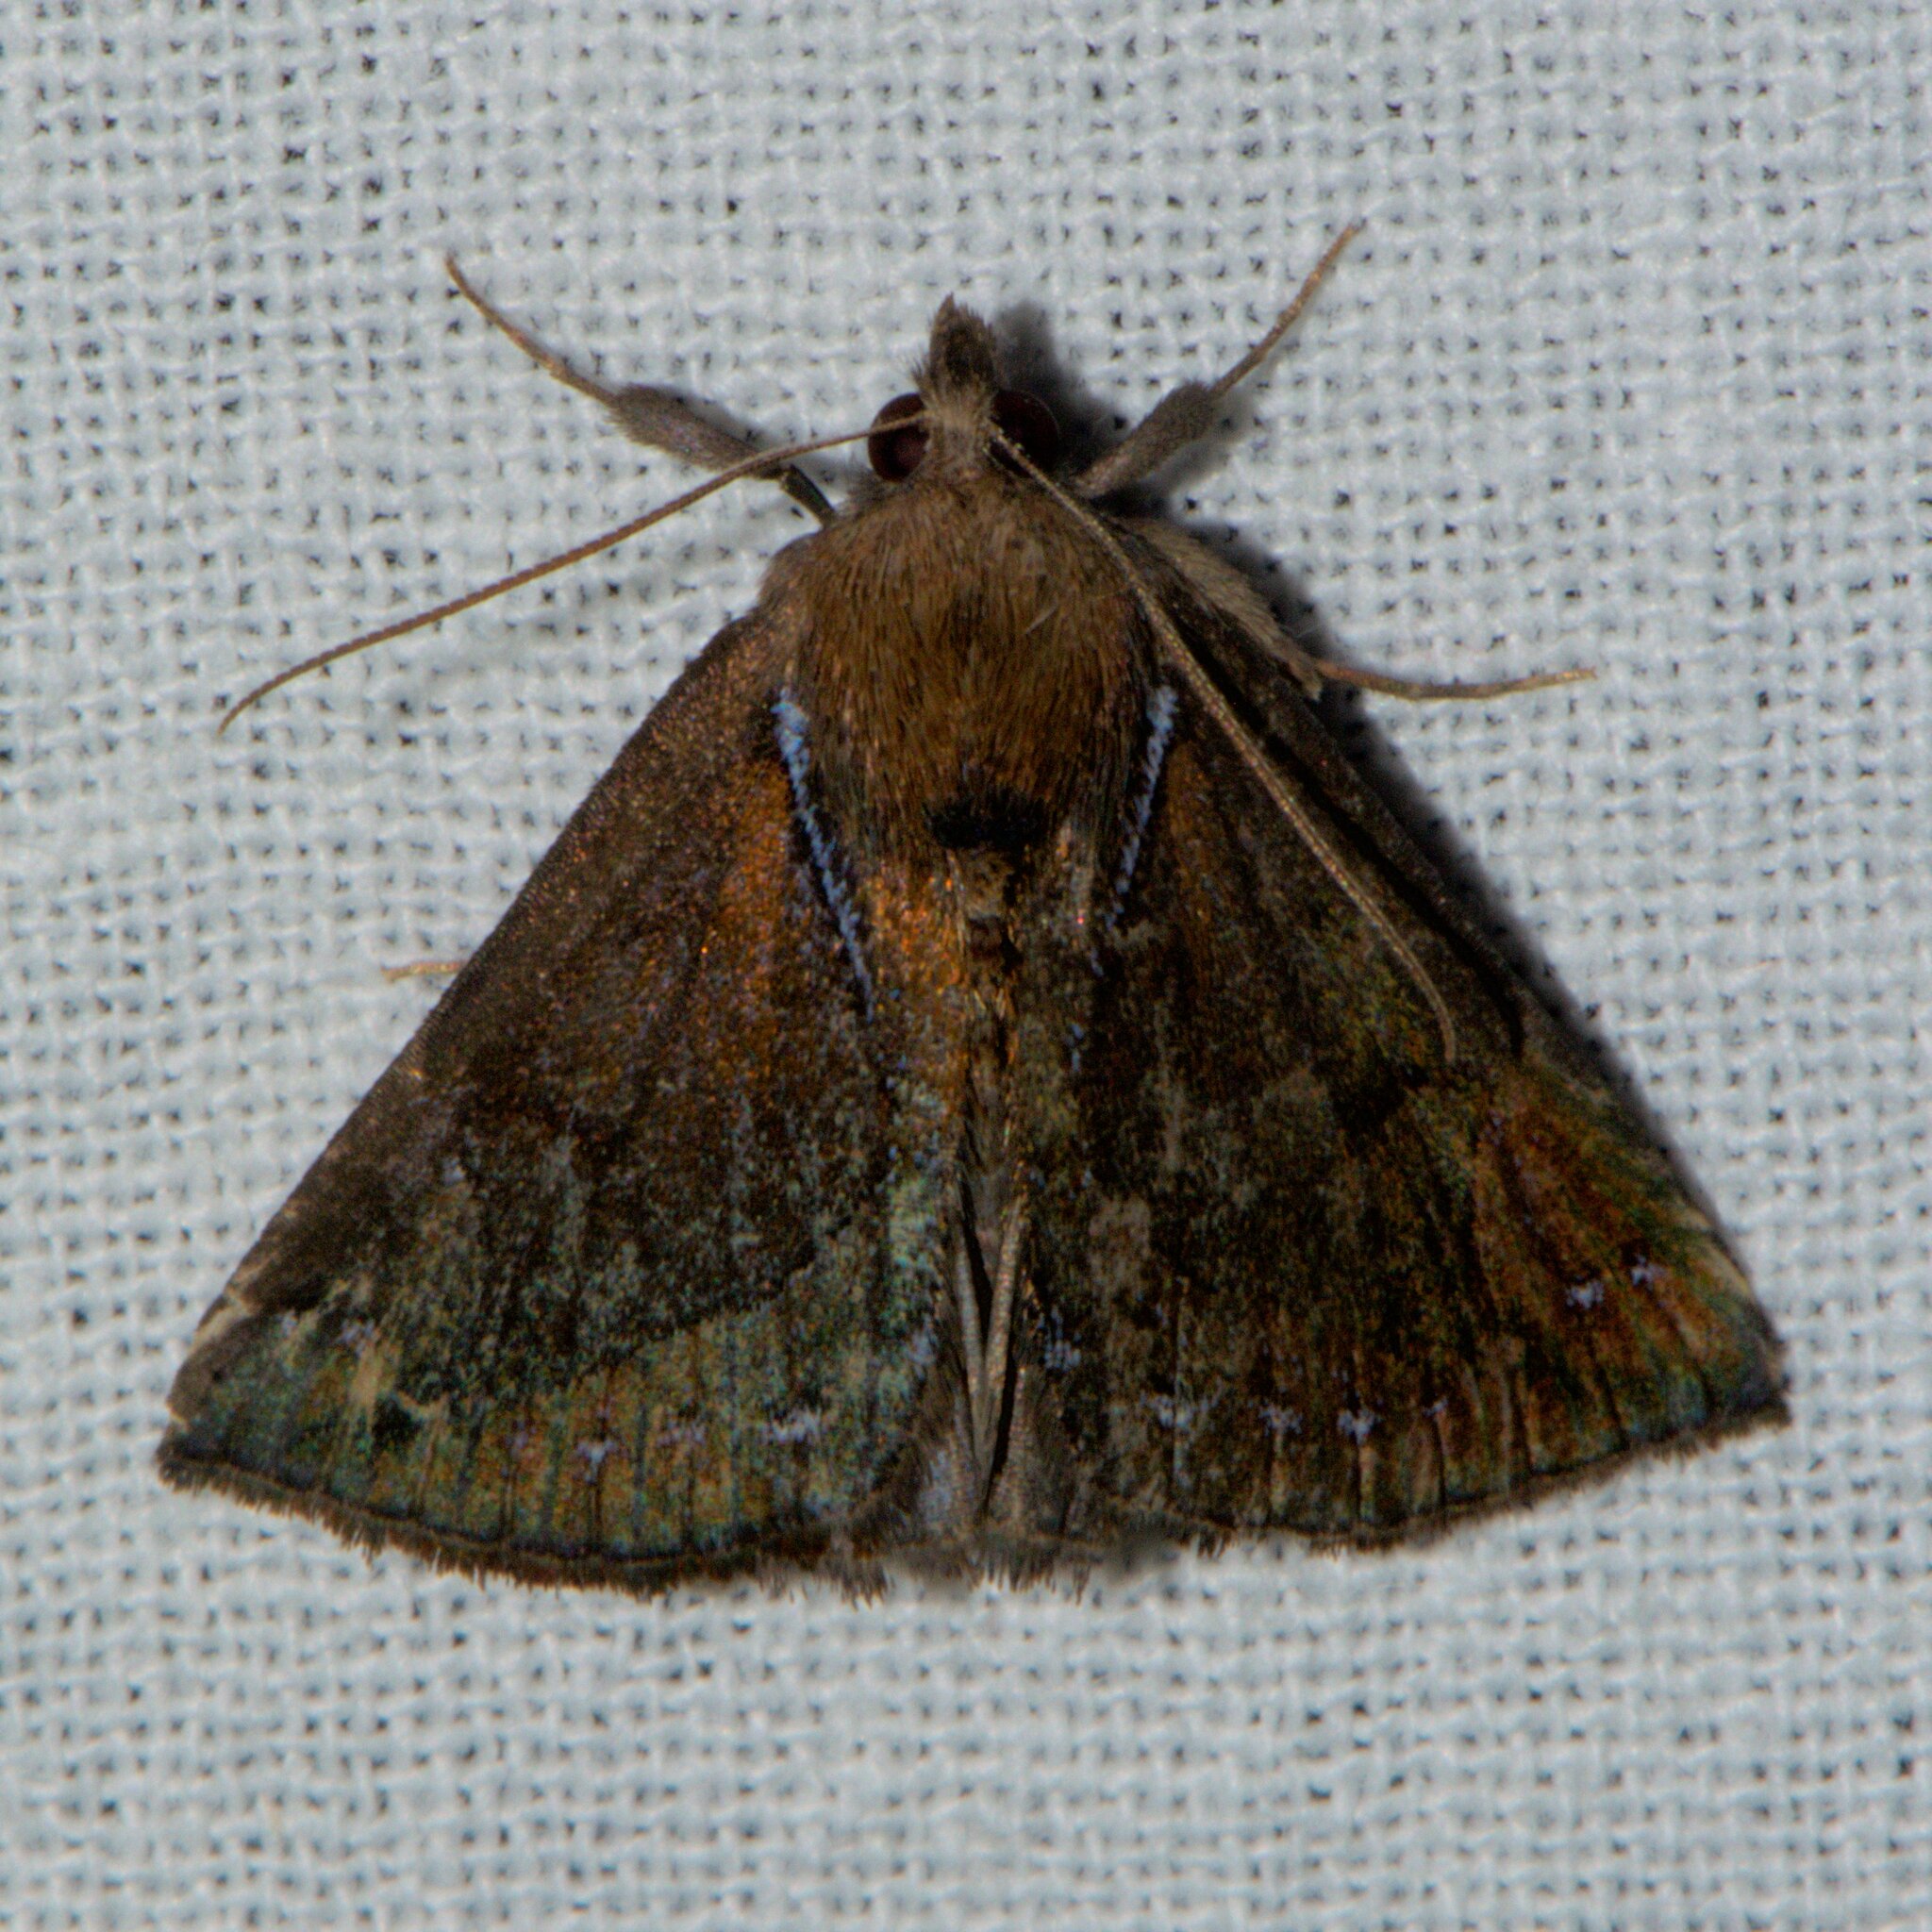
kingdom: Animalia
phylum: Arthropoda
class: Insecta
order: Lepidoptera
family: Erebidae
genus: Hypena
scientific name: Hypena rhombalis
